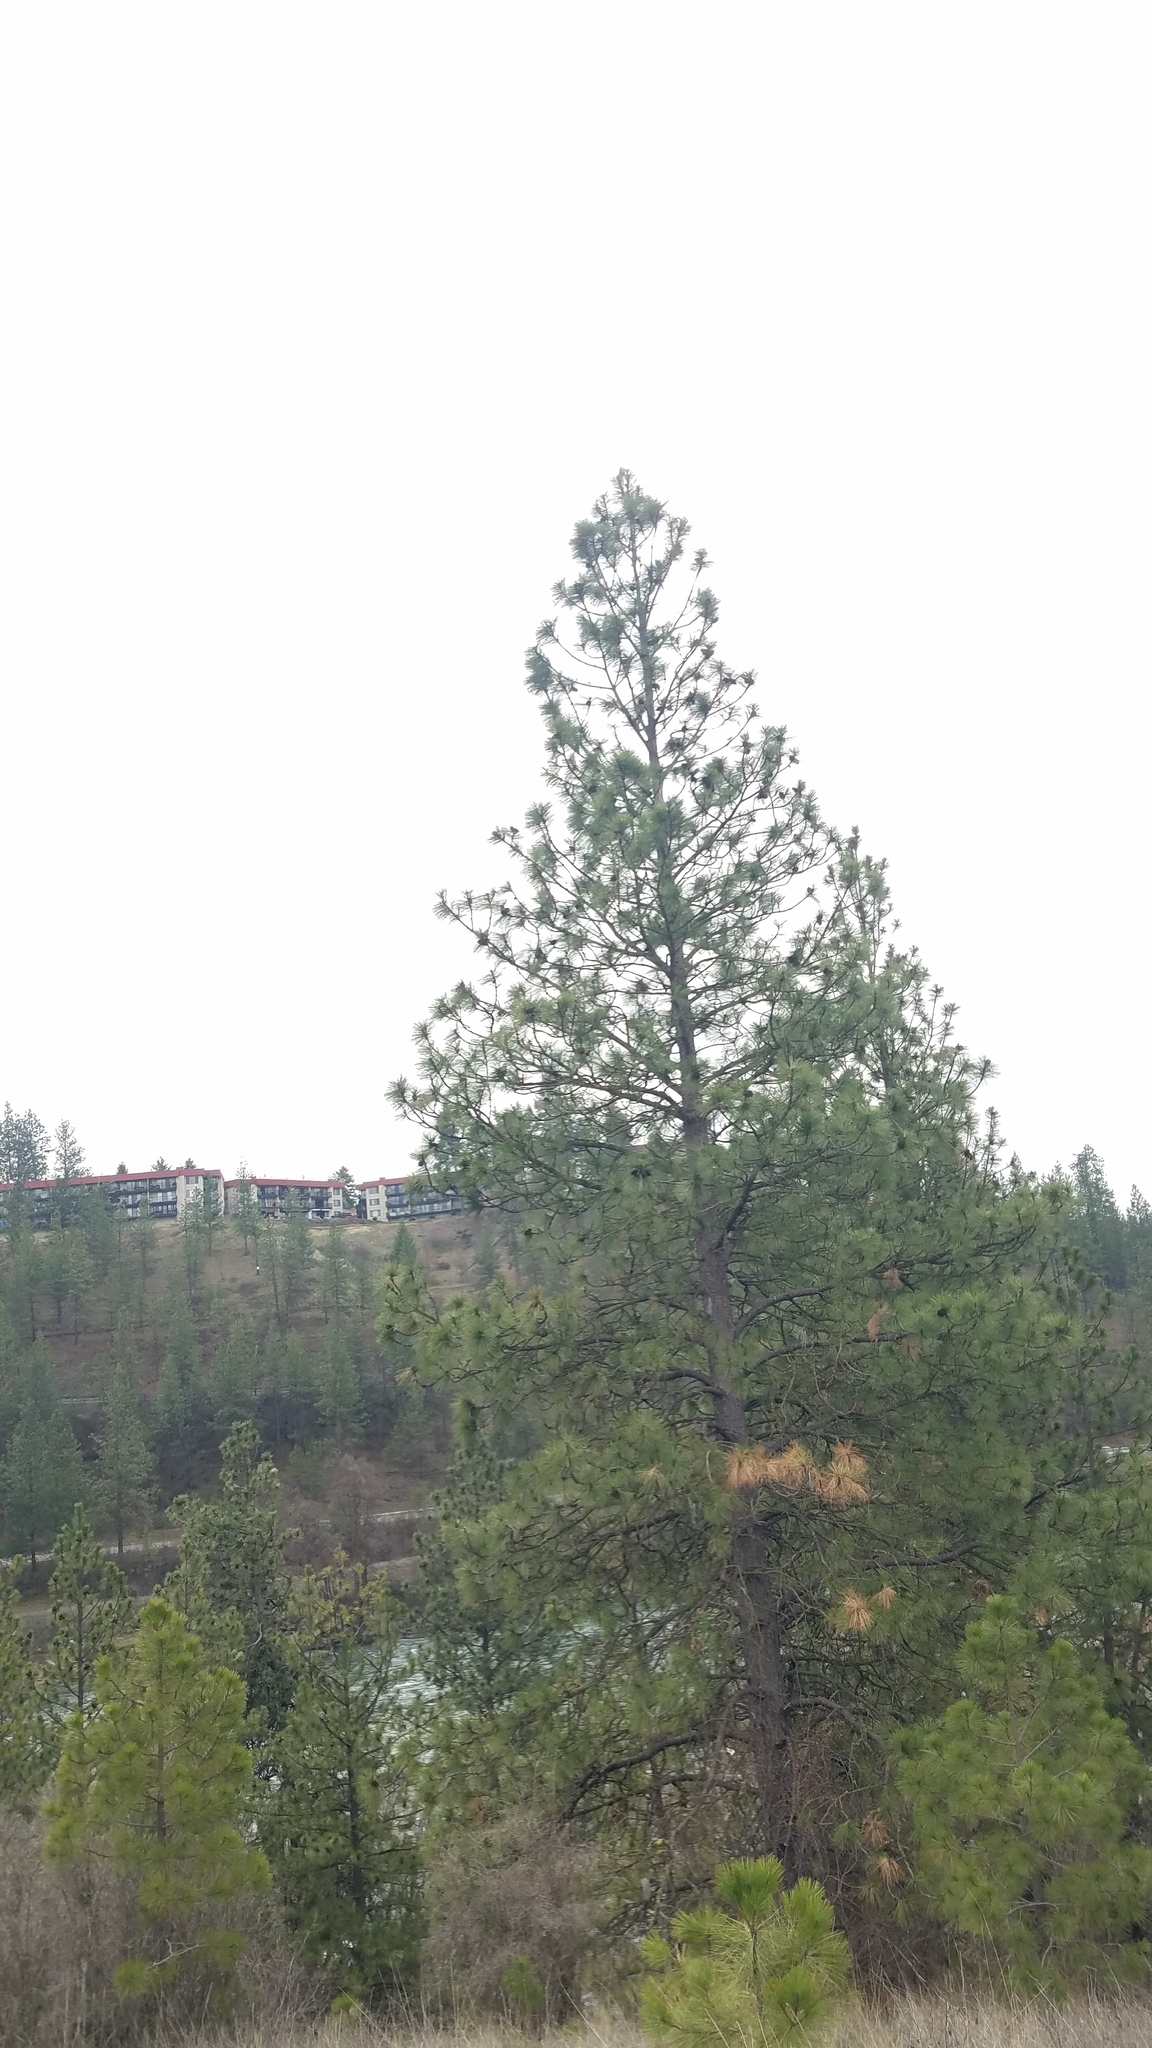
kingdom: Plantae
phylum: Tracheophyta
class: Pinopsida
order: Pinales
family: Pinaceae
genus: Pinus
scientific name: Pinus ponderosa
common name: Western yellow-pine
